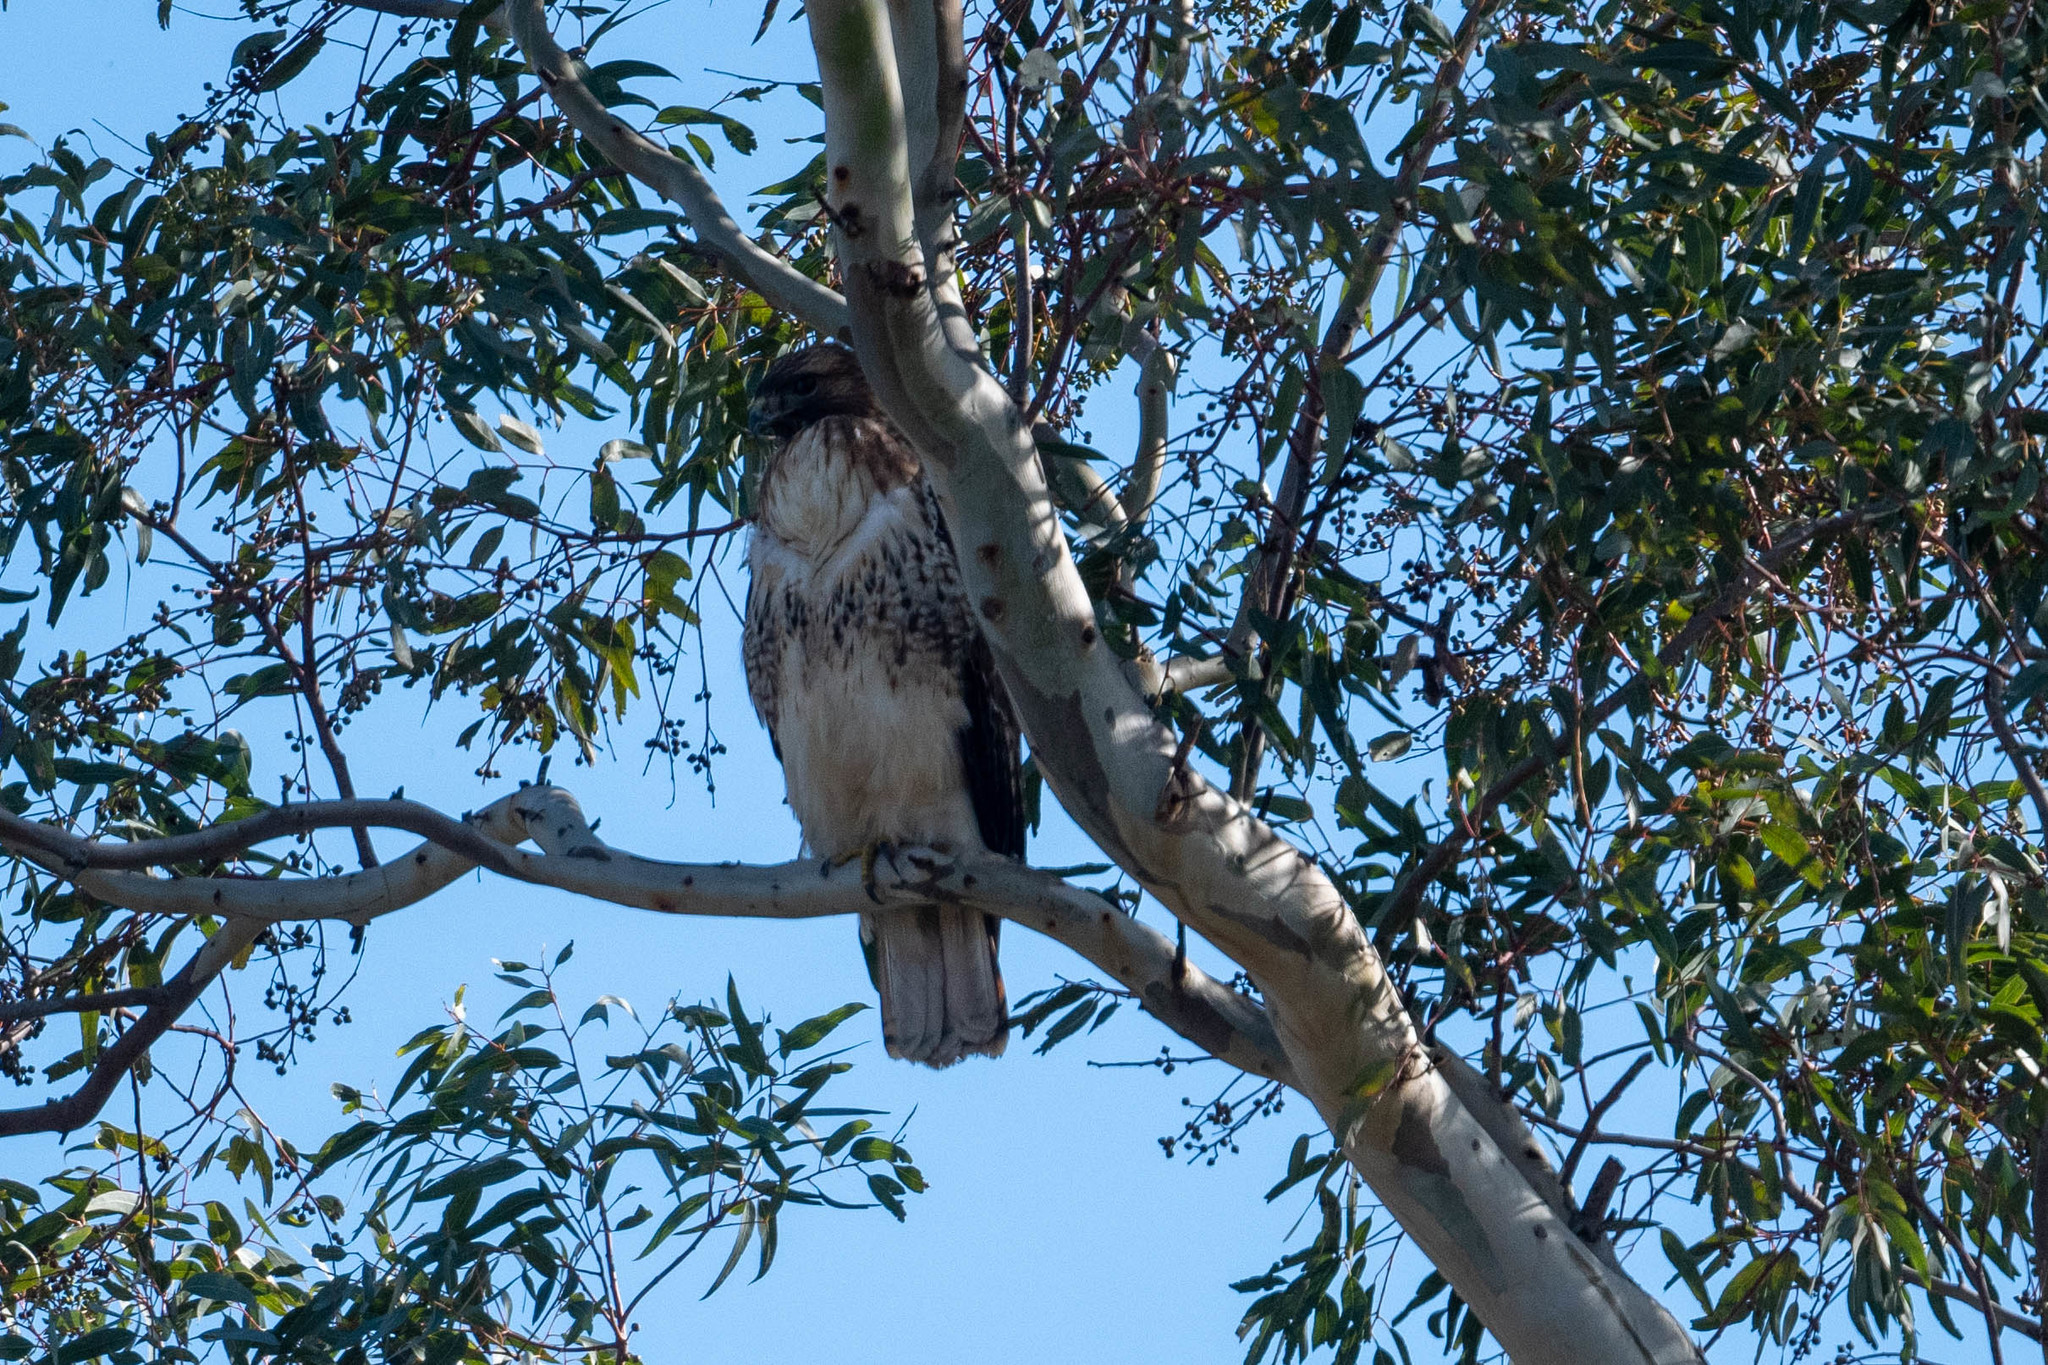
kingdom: Animalia
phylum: Chordata
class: Aves
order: Accipitriformes
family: Accipitridae
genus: Buteo
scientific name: Buteo jamaicensis
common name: Red-tailed hawk
